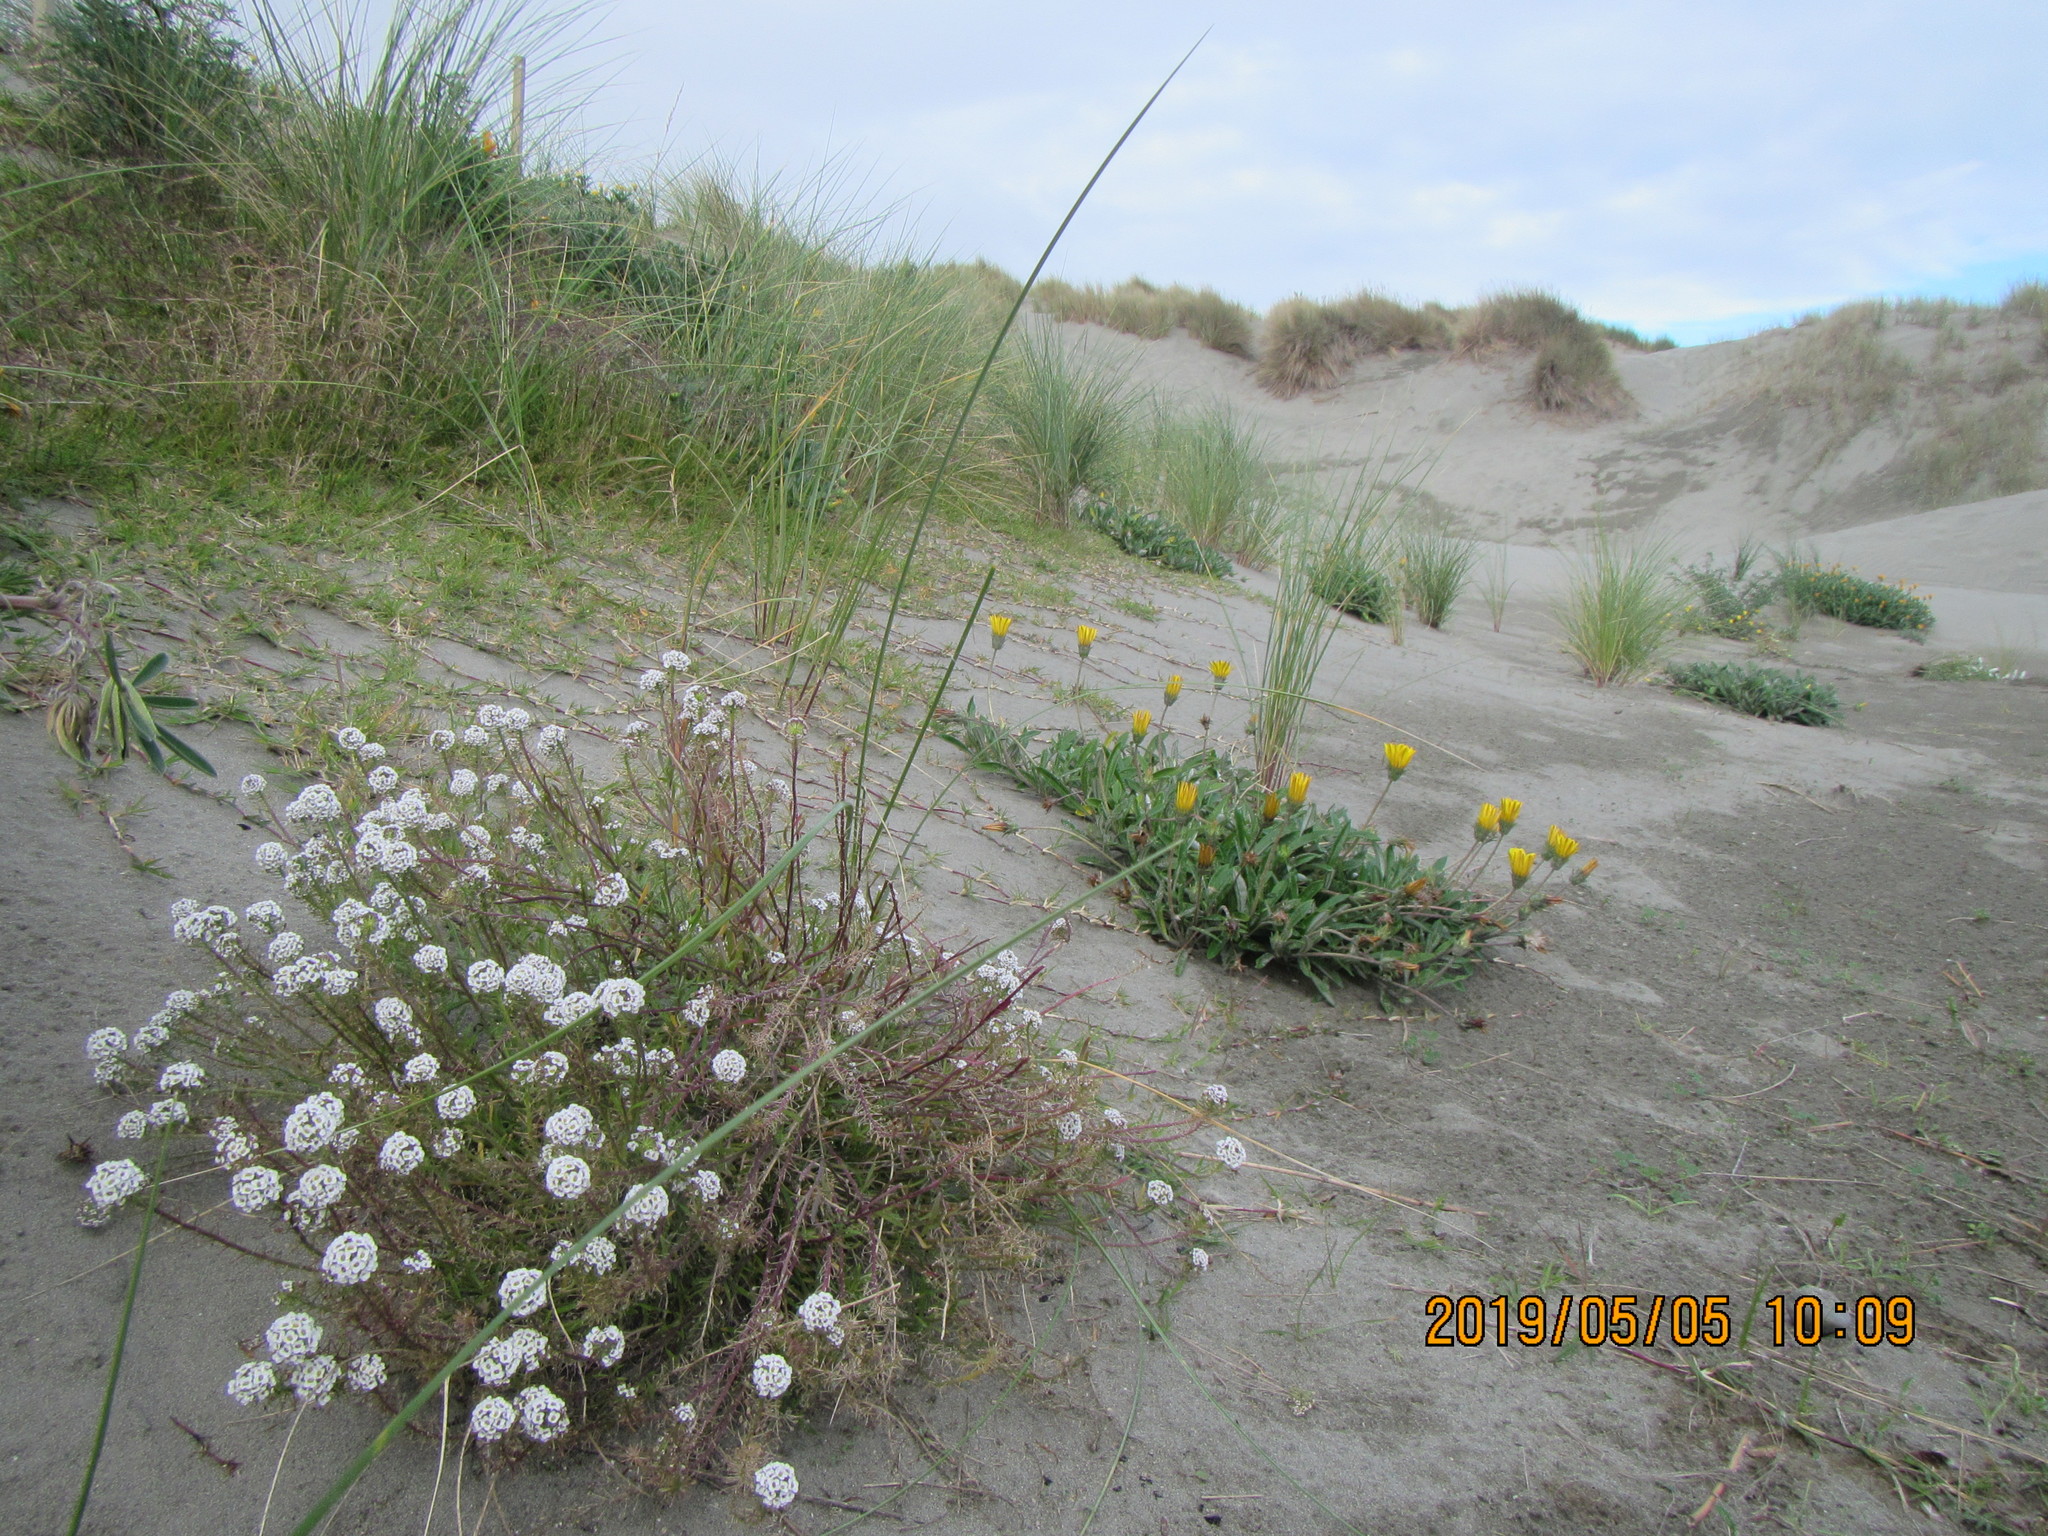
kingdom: Plantae
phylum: Tracheophyta
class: Magnoliopsida
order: Brassicales
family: Brassicaceae
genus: Lobularia
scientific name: Lobularia maritima
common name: Sweet alison
